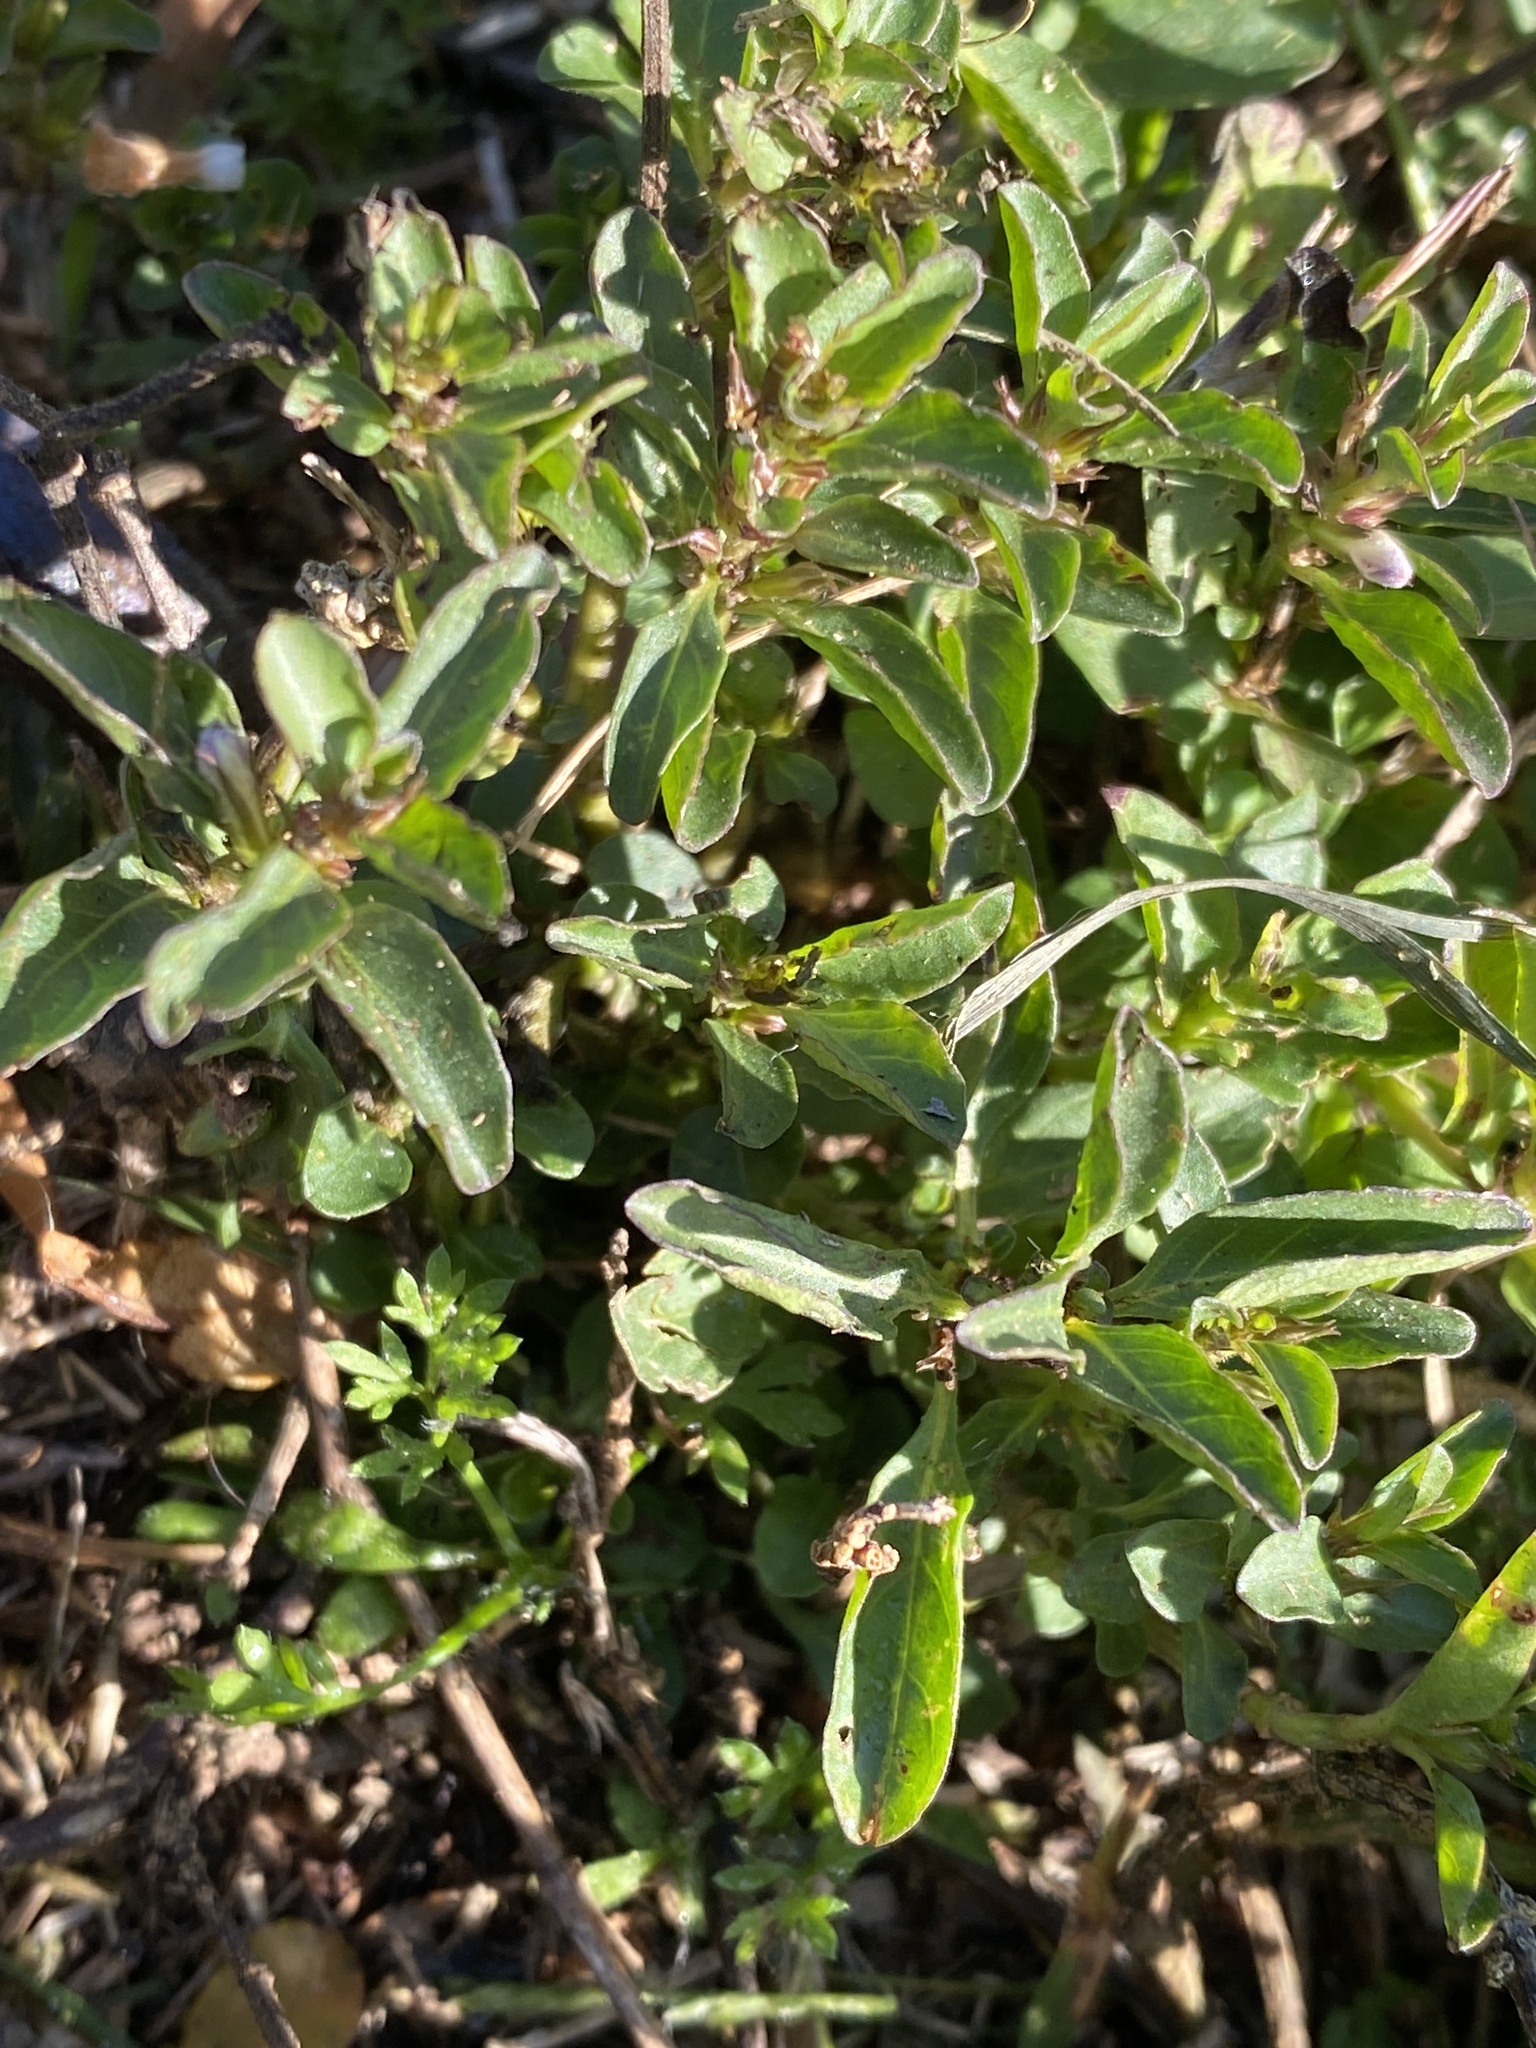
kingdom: Plantae
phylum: Tracheophyta
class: Magnoliopsida
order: Lamiales
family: Acanthaceae
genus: Hygrophila
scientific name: Hygrophila erecta
